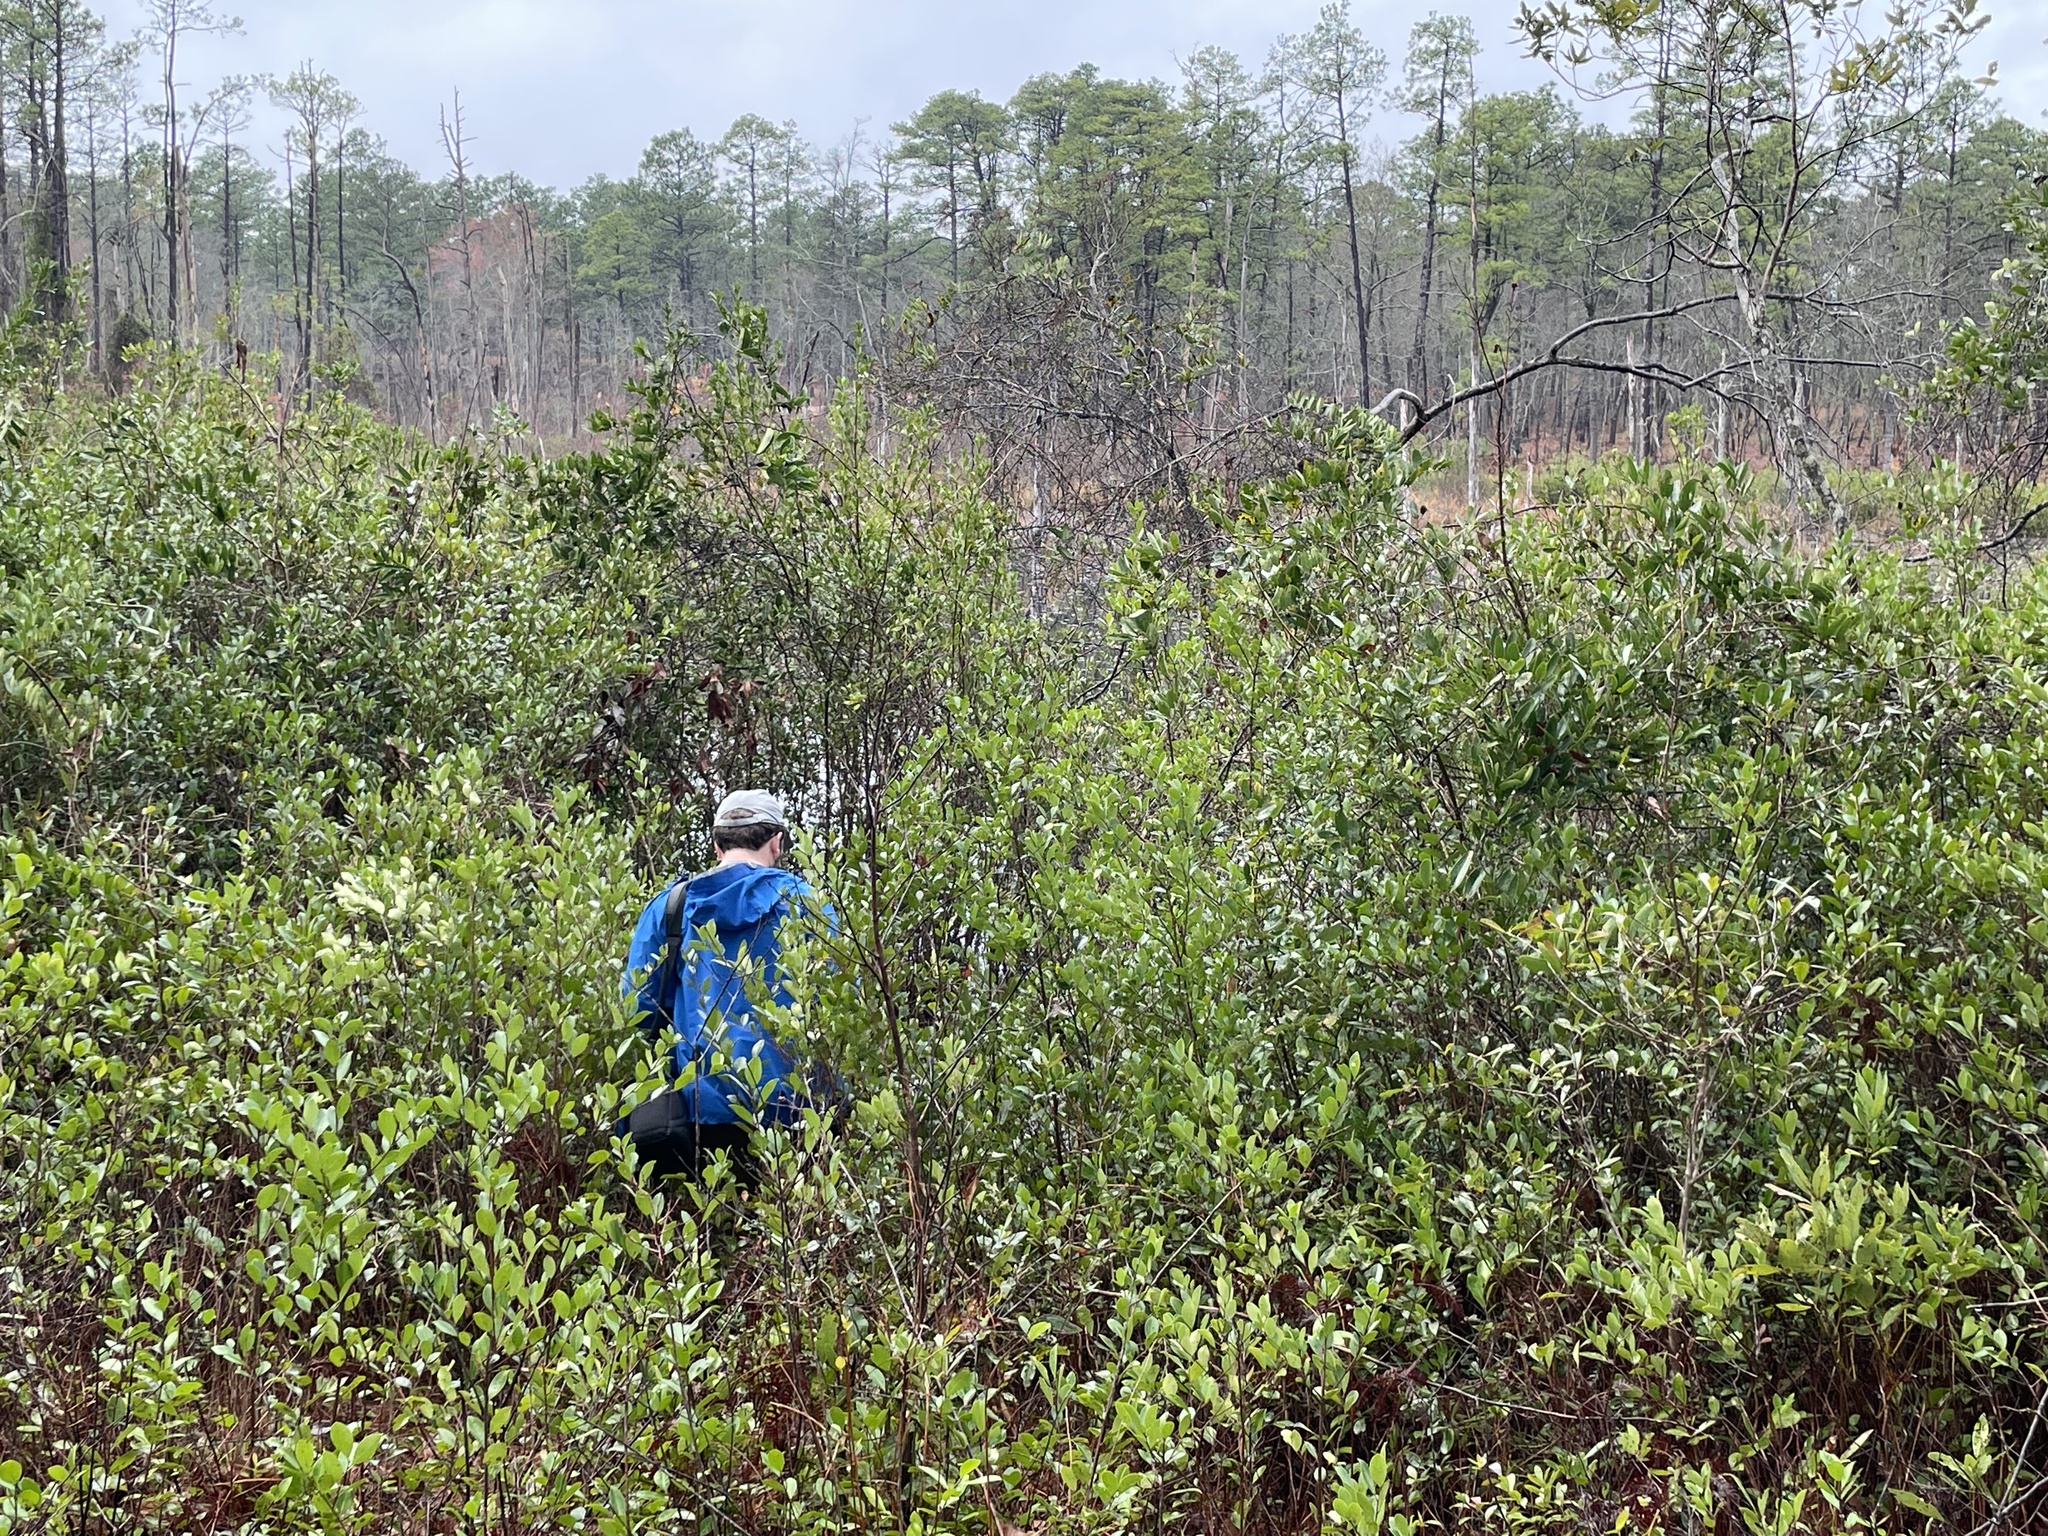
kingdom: Plantae
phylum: Tracheophyta
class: Magnoliopsida
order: Ericales
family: Ericaceae
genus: Lyonia
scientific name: Lyonia lucida
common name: Fetterbush
